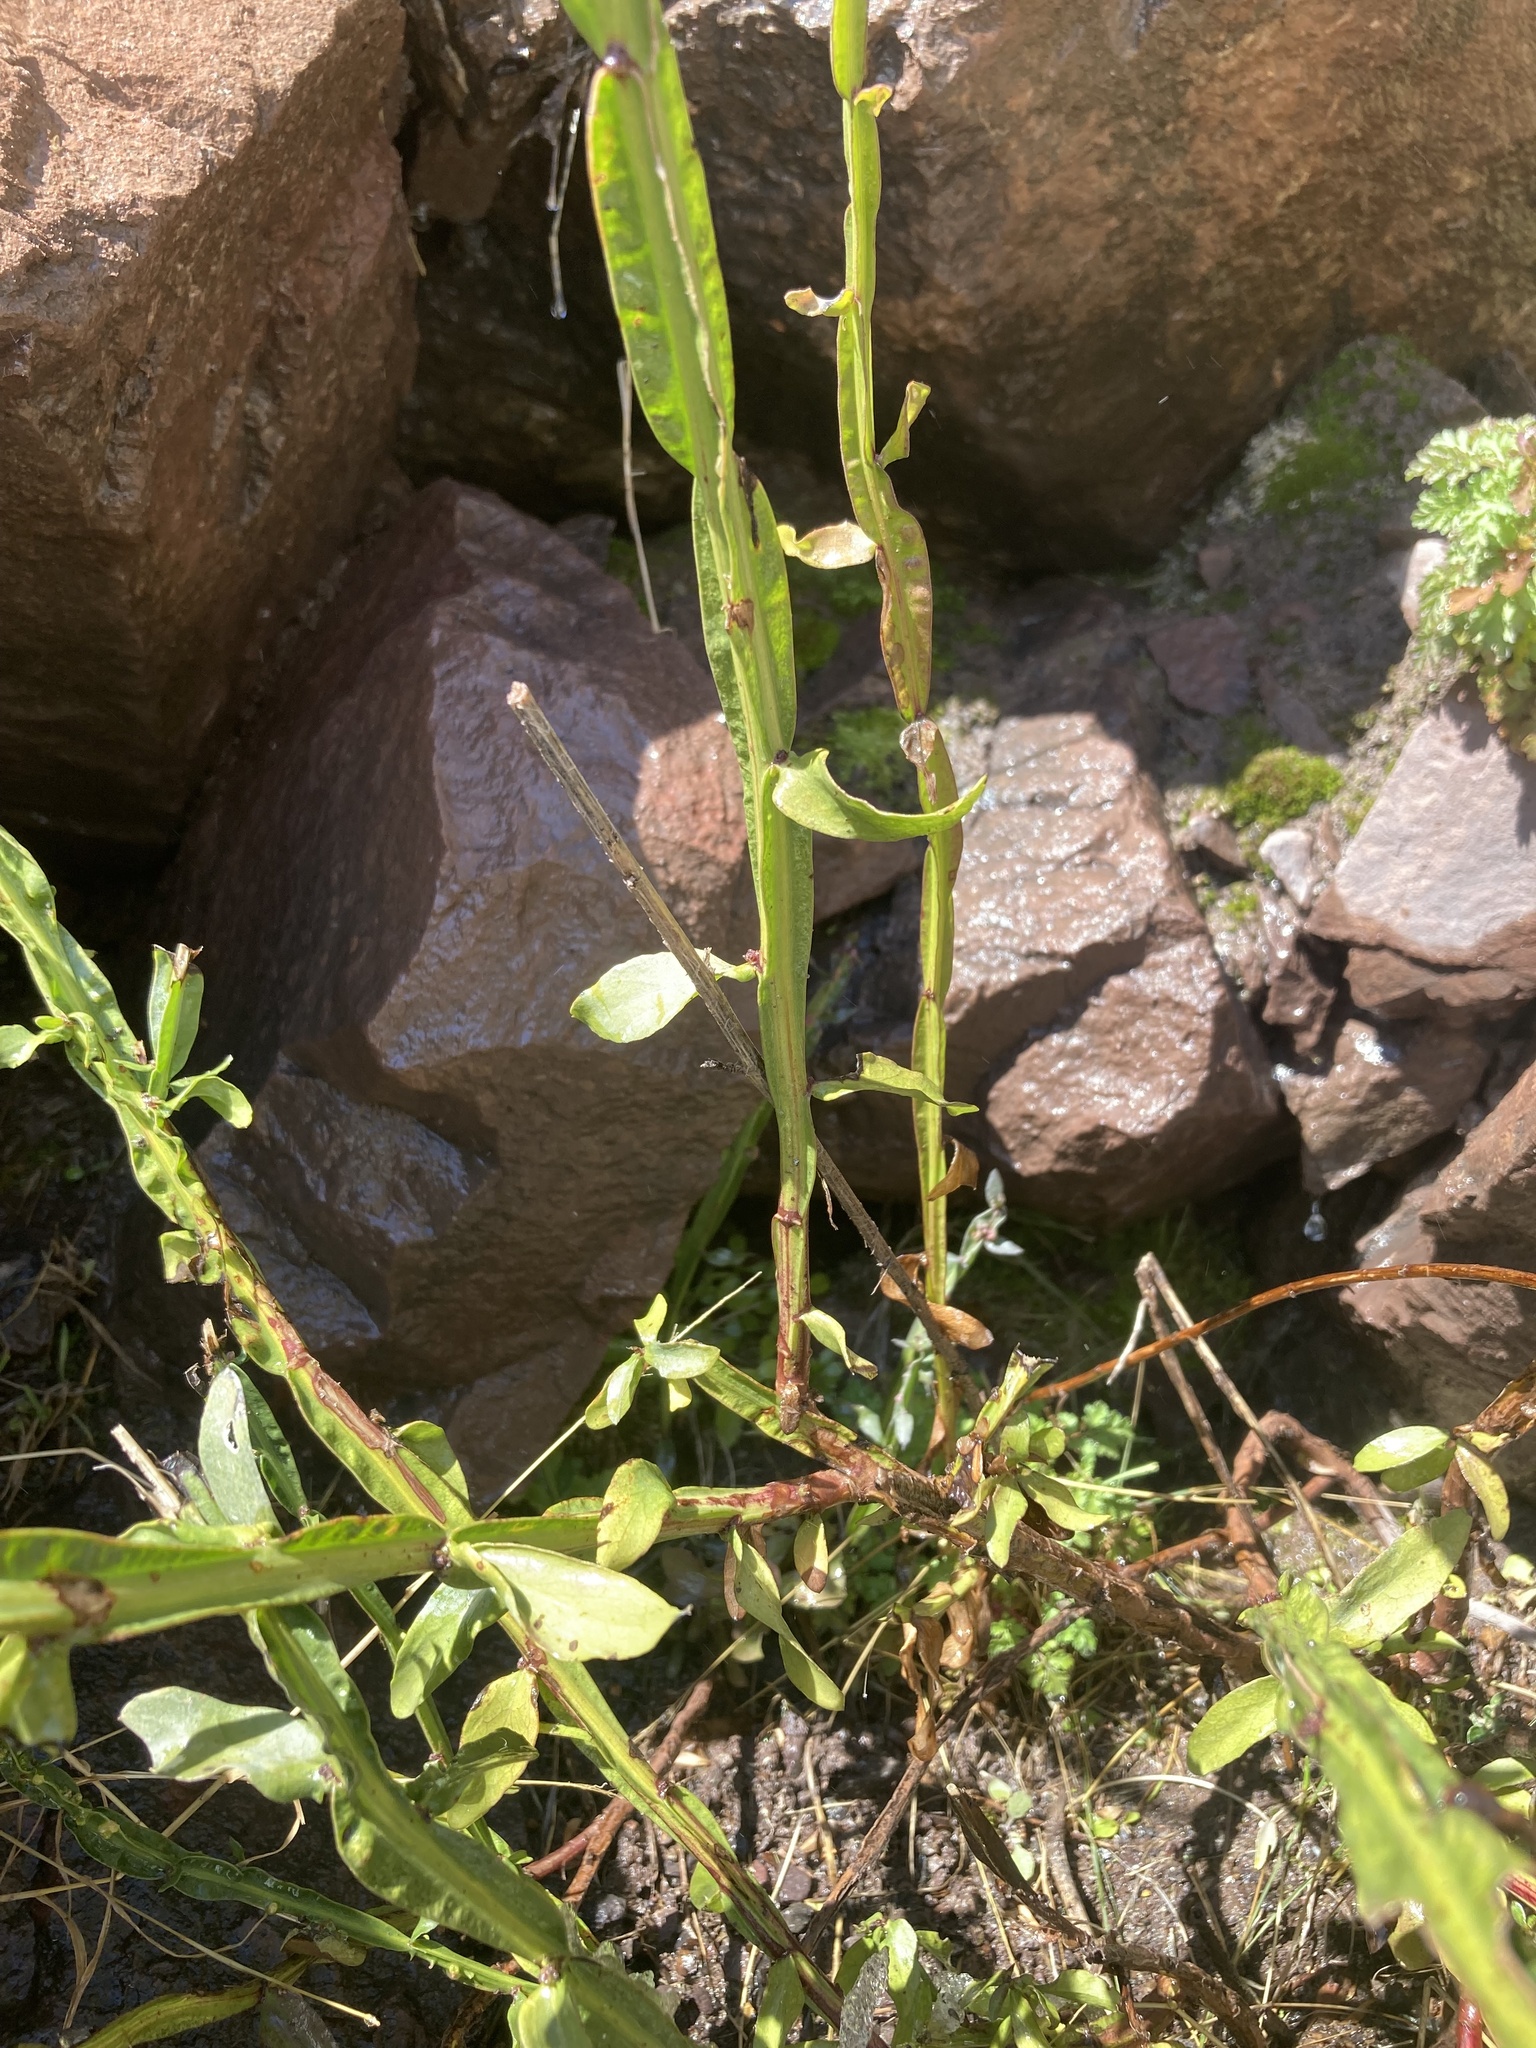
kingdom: Plantae
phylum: Tracheophyta
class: Magnoliopsida
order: Asterales
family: Asteraceae
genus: Baccharis
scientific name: Baccharis sagittalis
